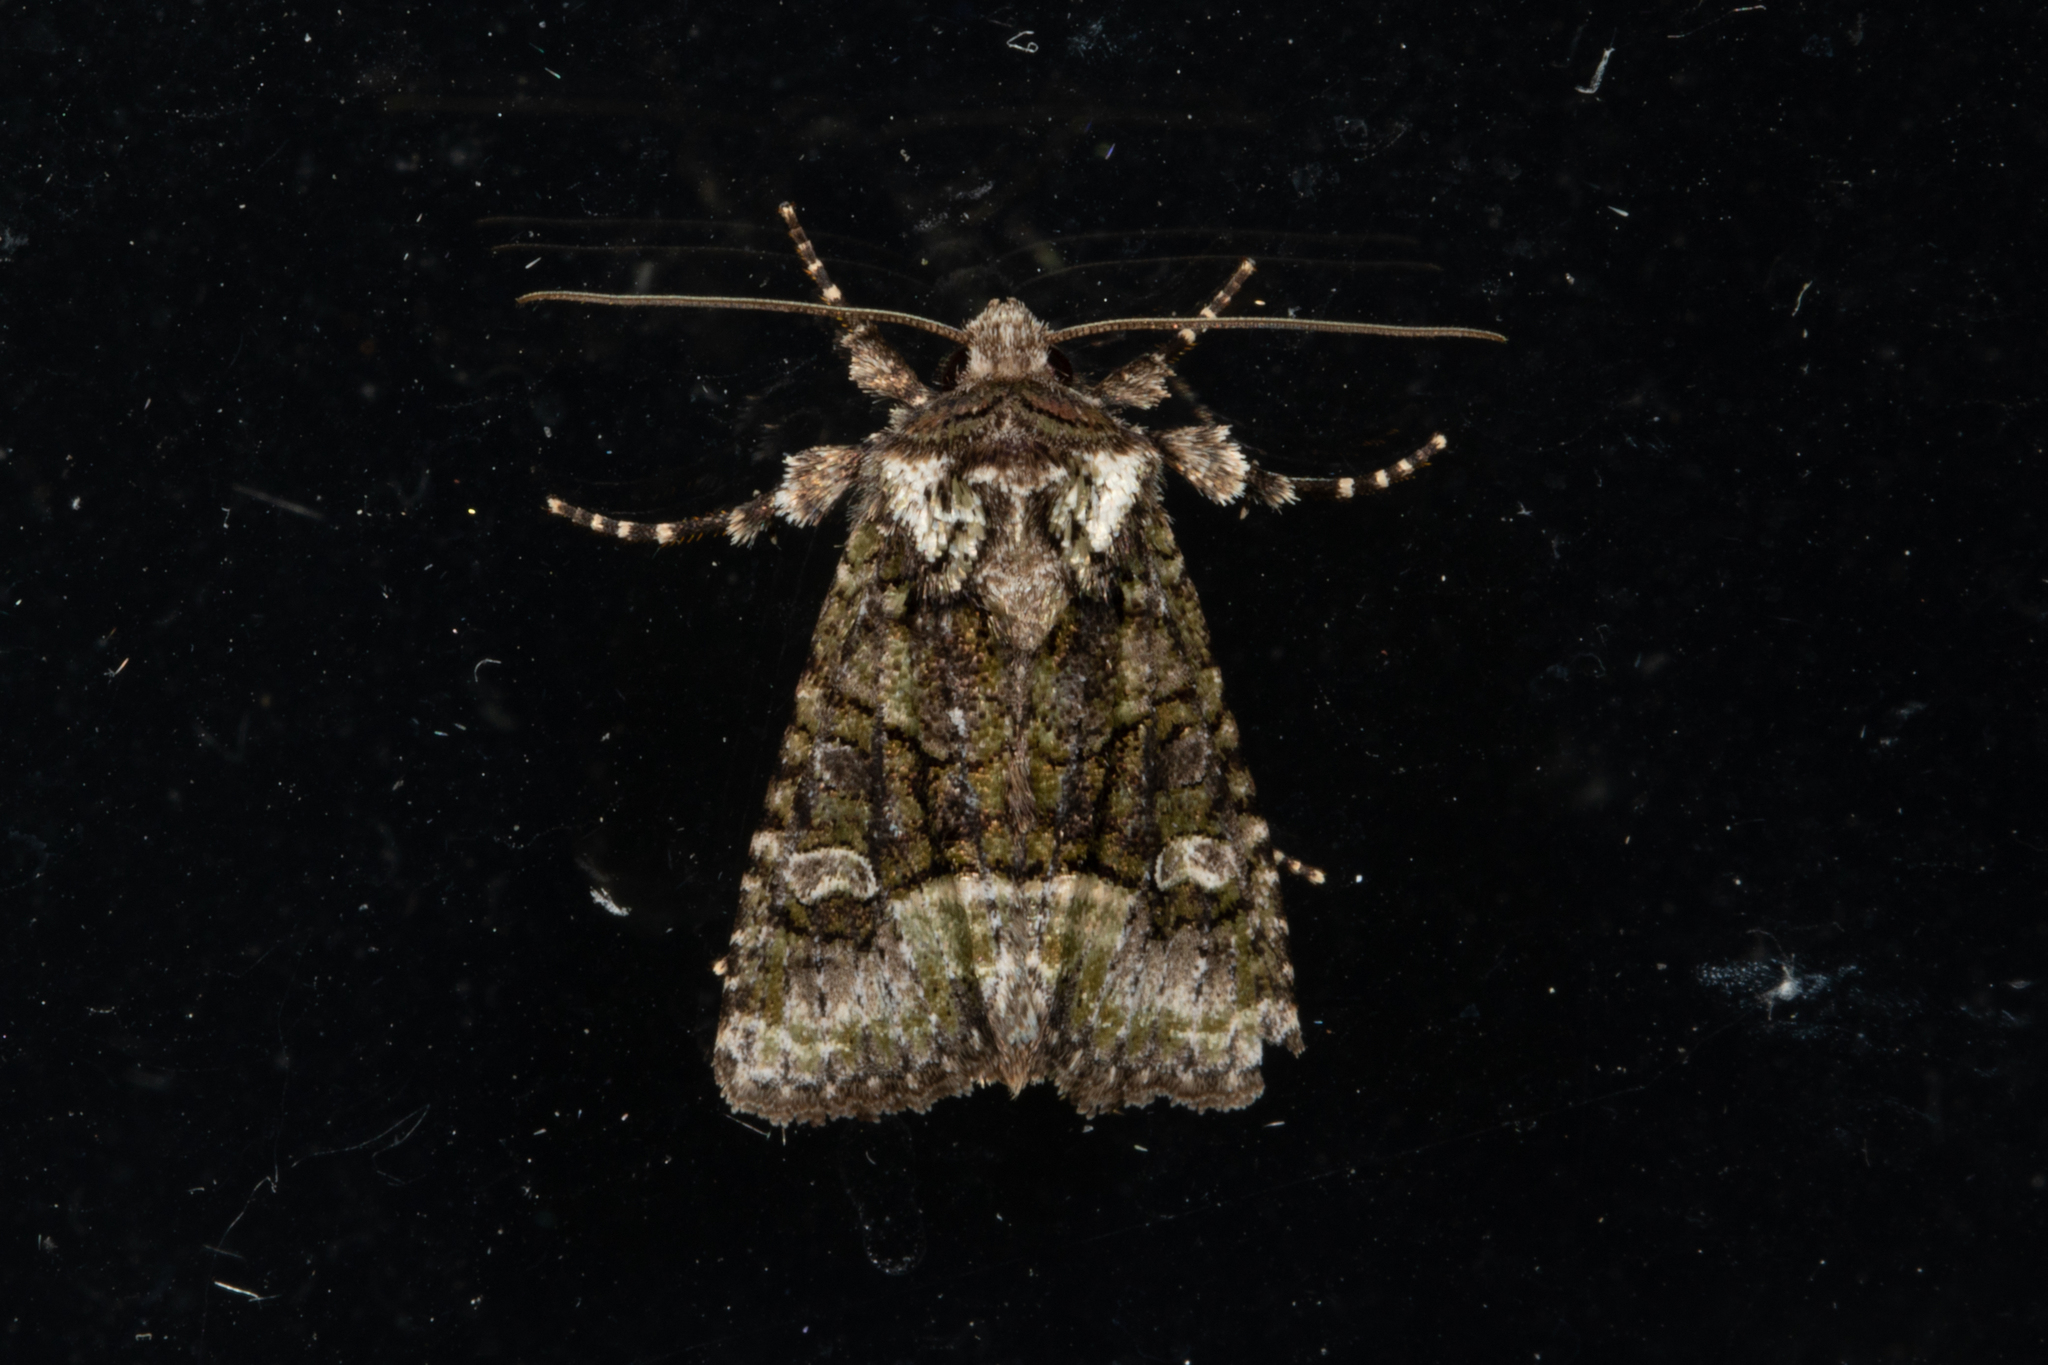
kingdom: Animalia
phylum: Arthropoda
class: Insecta
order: Lepidoptera
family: Noctuidae
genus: Lacinipolia
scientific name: Lacinipolia olivacea
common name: Olive arches moth
